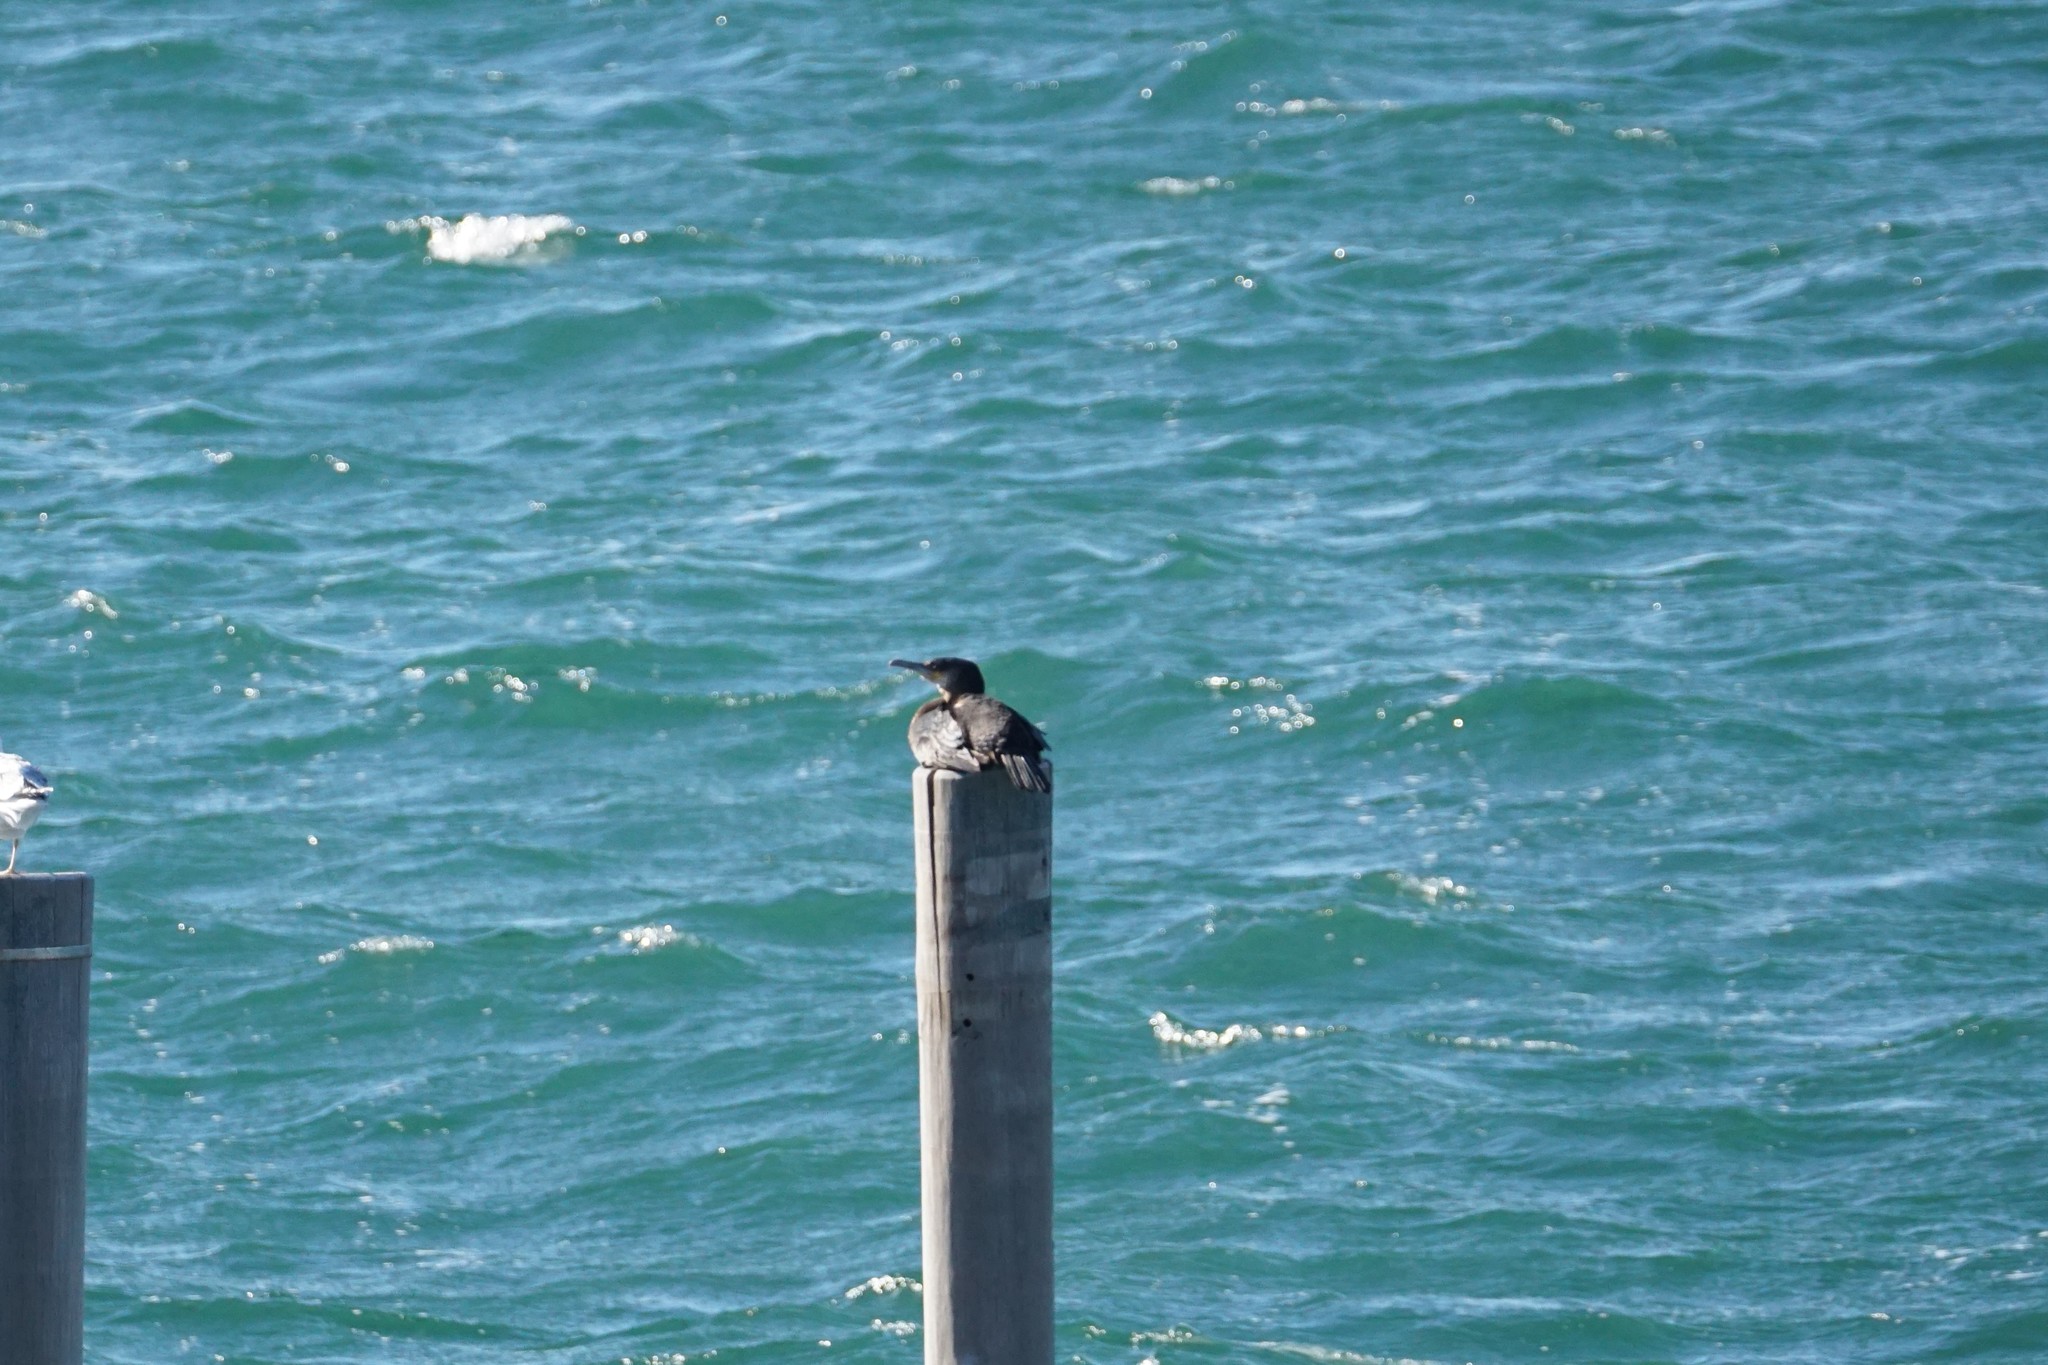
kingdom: Animalia
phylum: Chordata
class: Aves
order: Suliformes
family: Phalacrocoracidae
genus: Phalacrocorax
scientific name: Phalacrocorax carbo
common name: Great cormorant
